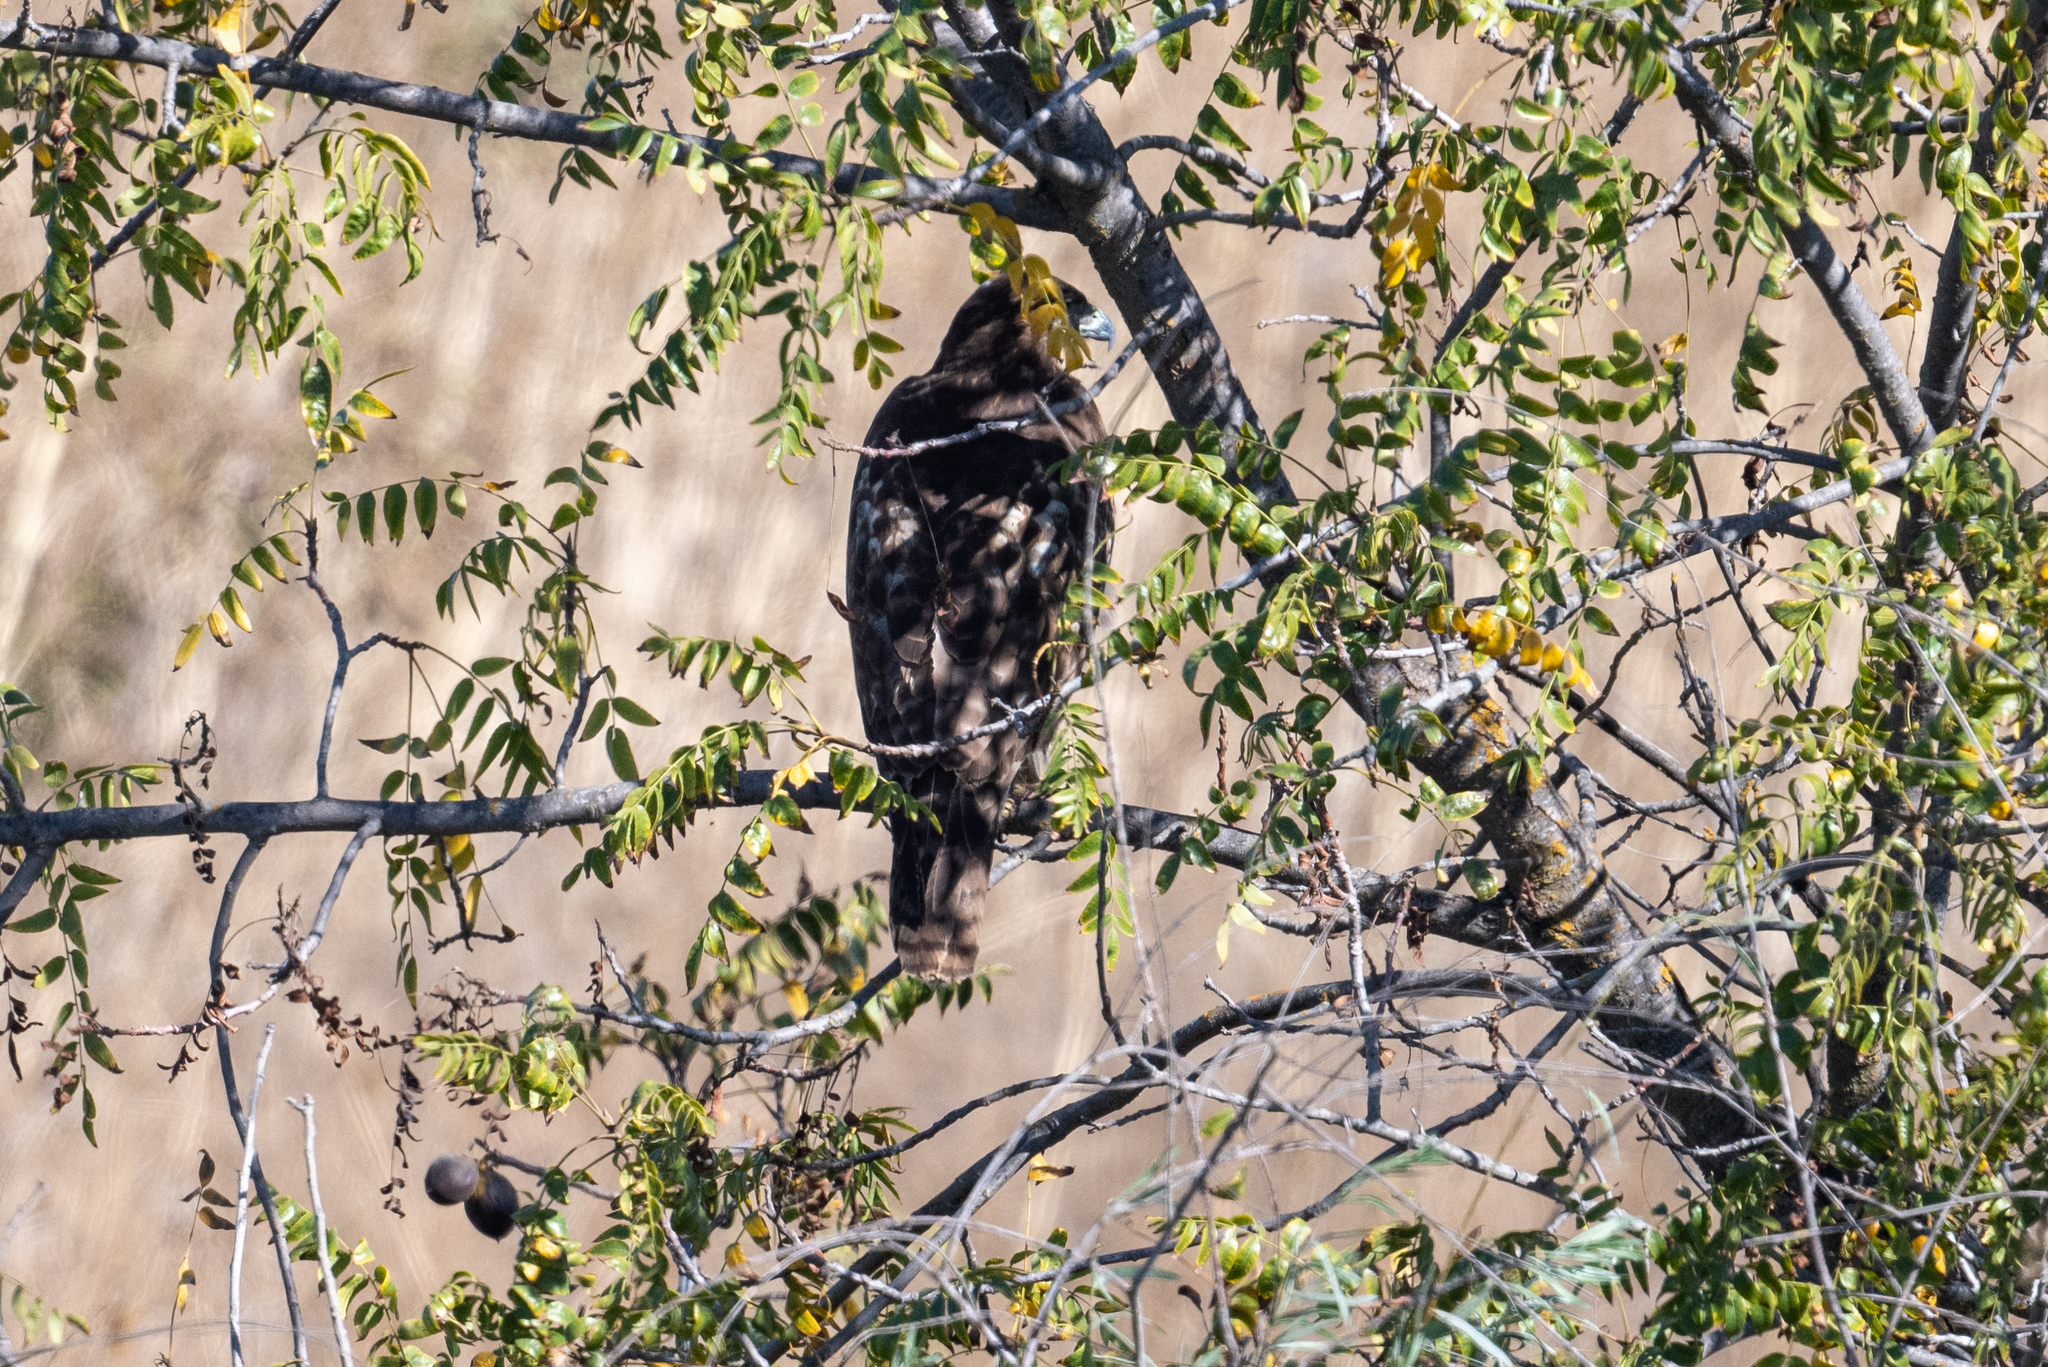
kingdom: Animalia
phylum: Chordata
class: Aves
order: Accipitriformes
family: Accipitridae
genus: Buteo
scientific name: Buteo jamaicensis
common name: Red-tailed hawk
